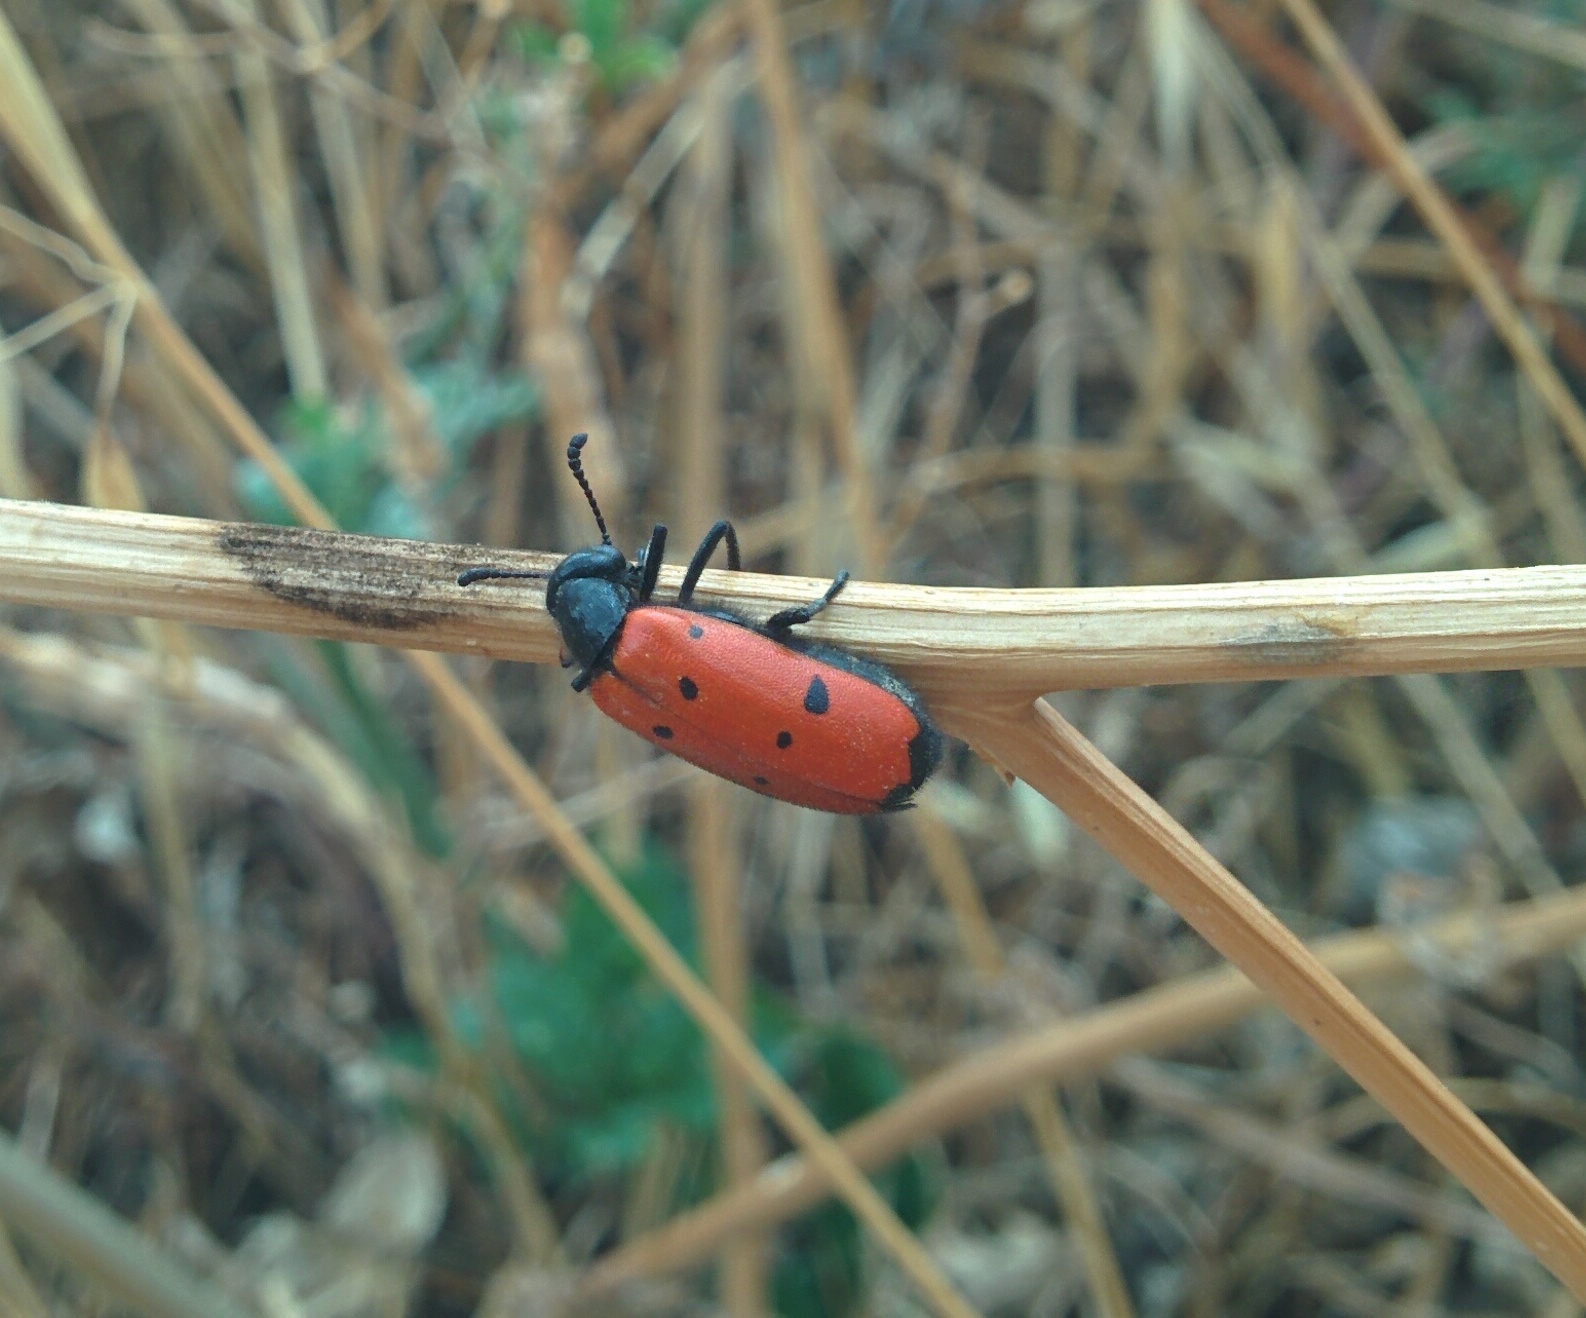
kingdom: Animalia
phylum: Arthropoda
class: Insecta
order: Coleoptera
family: Meloidae
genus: Mylabris
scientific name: Mylabris quadripunctata
